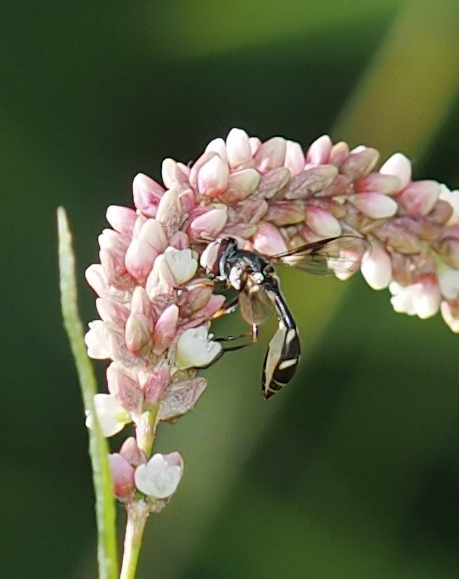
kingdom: Animalia
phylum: Arthropoda
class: Insecta
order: Diptera
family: Syrphidae
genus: Dioprosopa
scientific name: Dioprosopa clavatus
